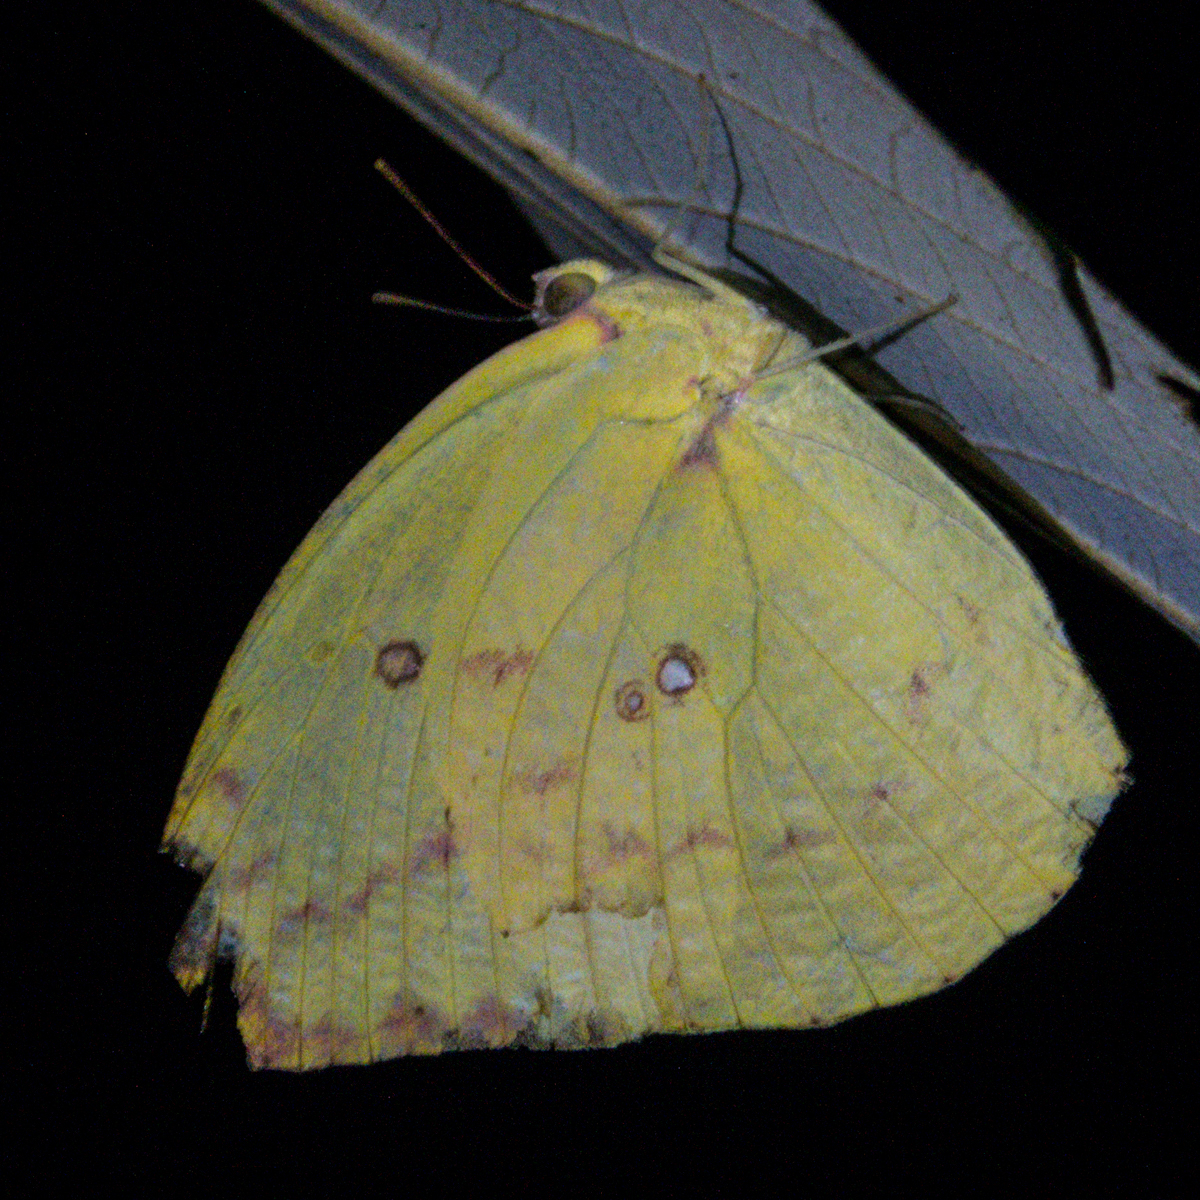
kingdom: Animalia
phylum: Arthropoda
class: Insecta
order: Lepidoptera
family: Pieridae
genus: Catopsilia
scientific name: Catopsilia pomona
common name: Common emigrant
